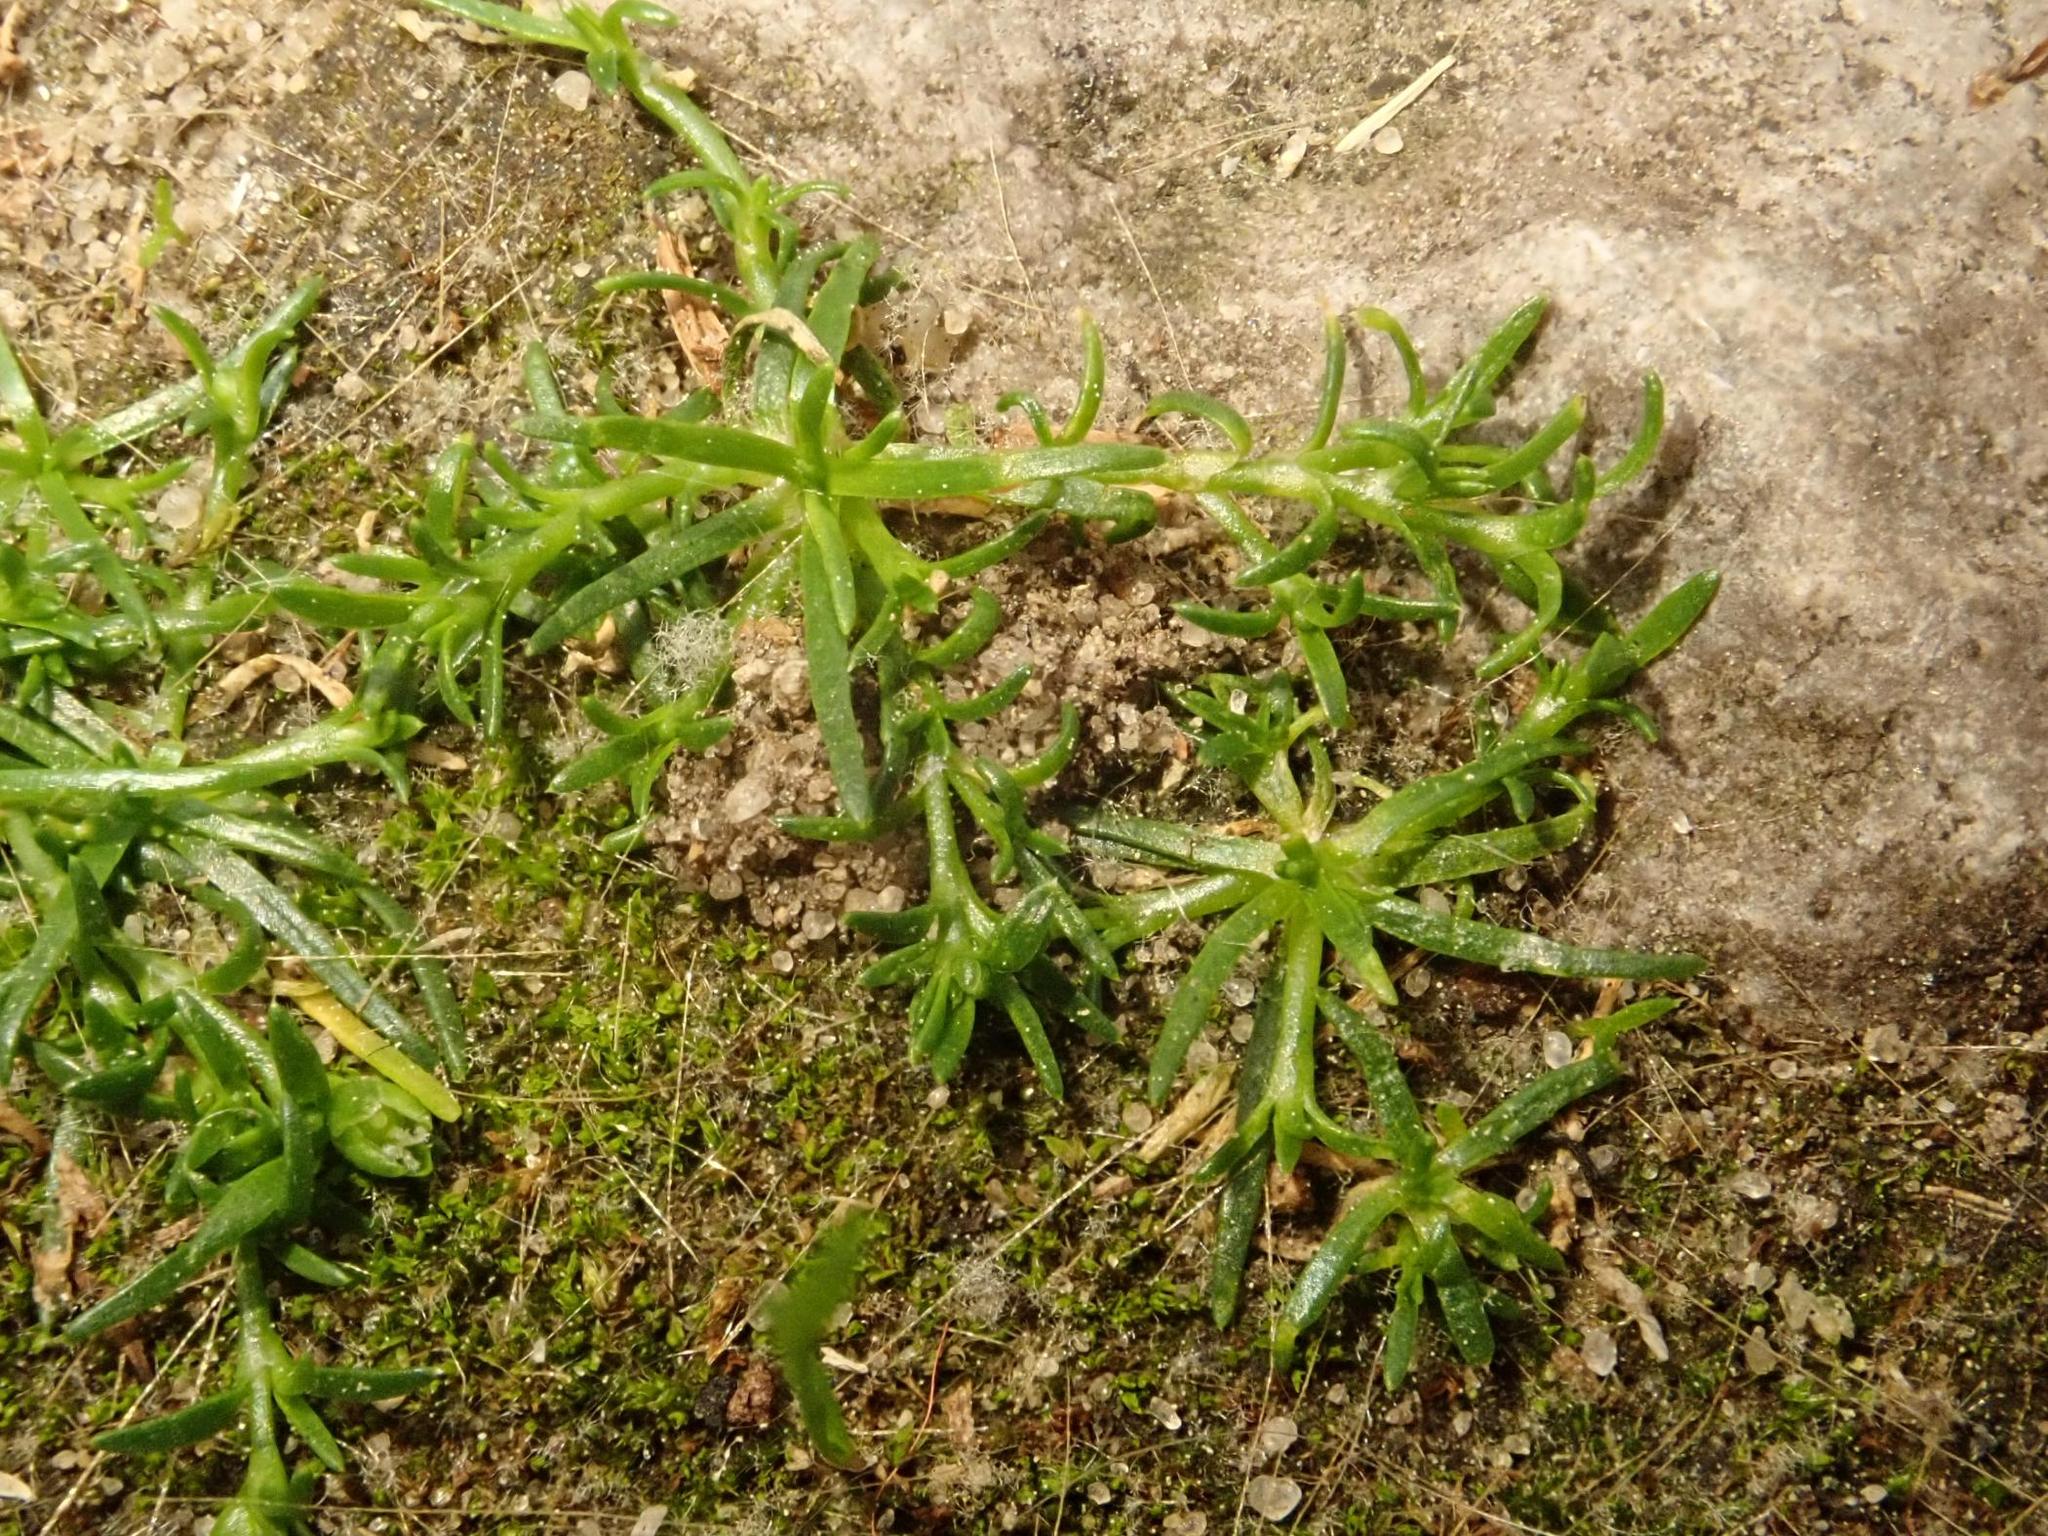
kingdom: Plantae
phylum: Tracheophyta
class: Magnoliopsida
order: Caryophyllales
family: Caryophyllaceae
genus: Sagina
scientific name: Sagina procumbens
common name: Procumbent pearlwort
